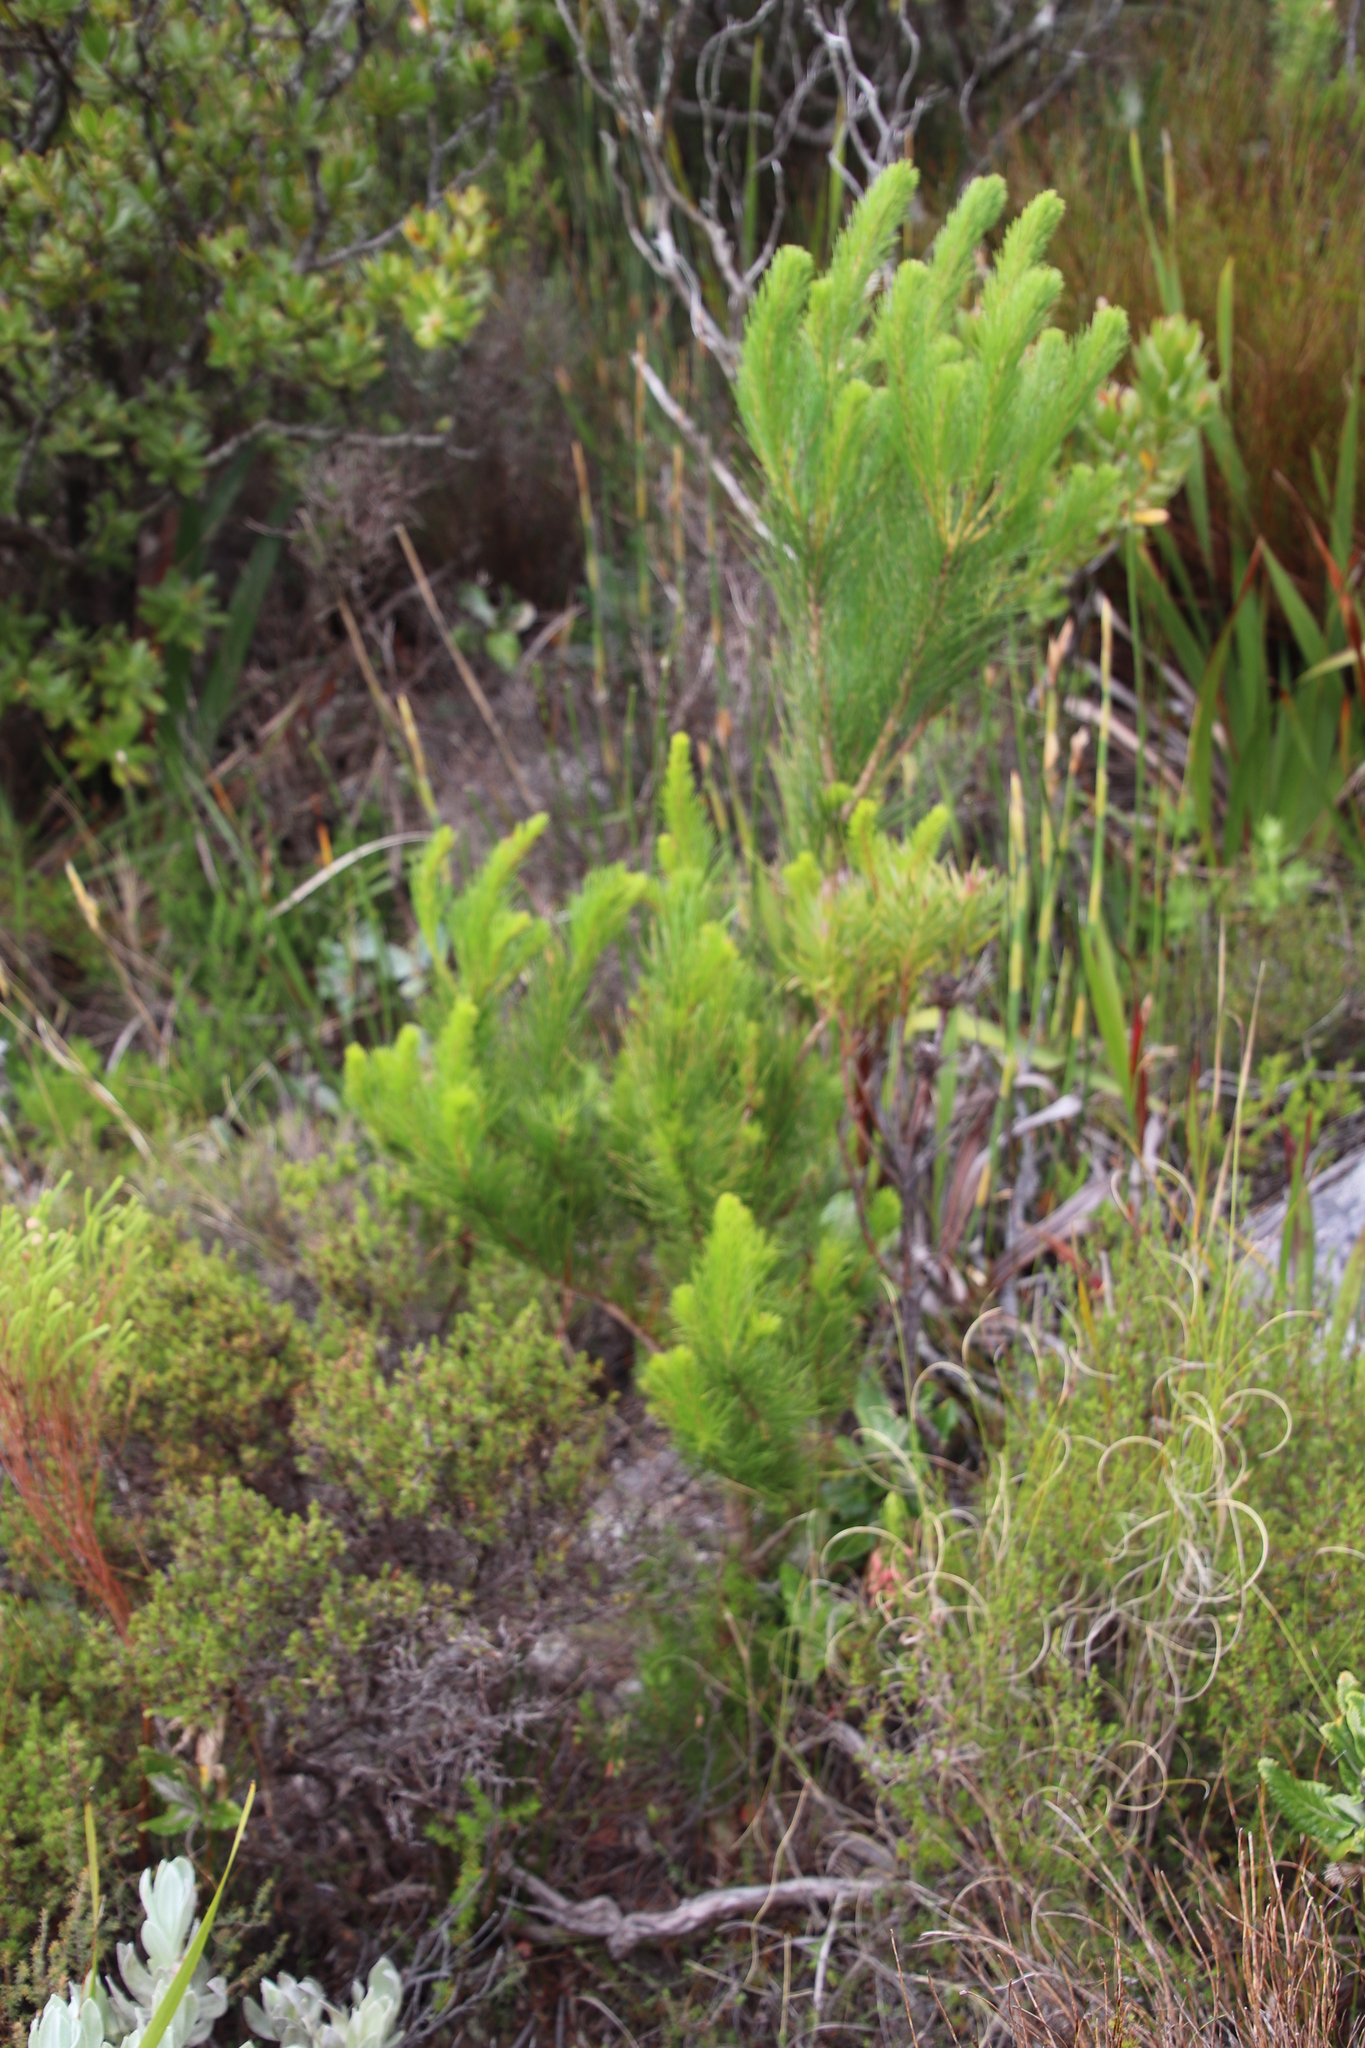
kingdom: Plantae
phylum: Tracheophyta
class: Pinopsida
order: Pinales
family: Pinaceae
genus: Pinus
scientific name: Pinus radiata
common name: Monterey pine
